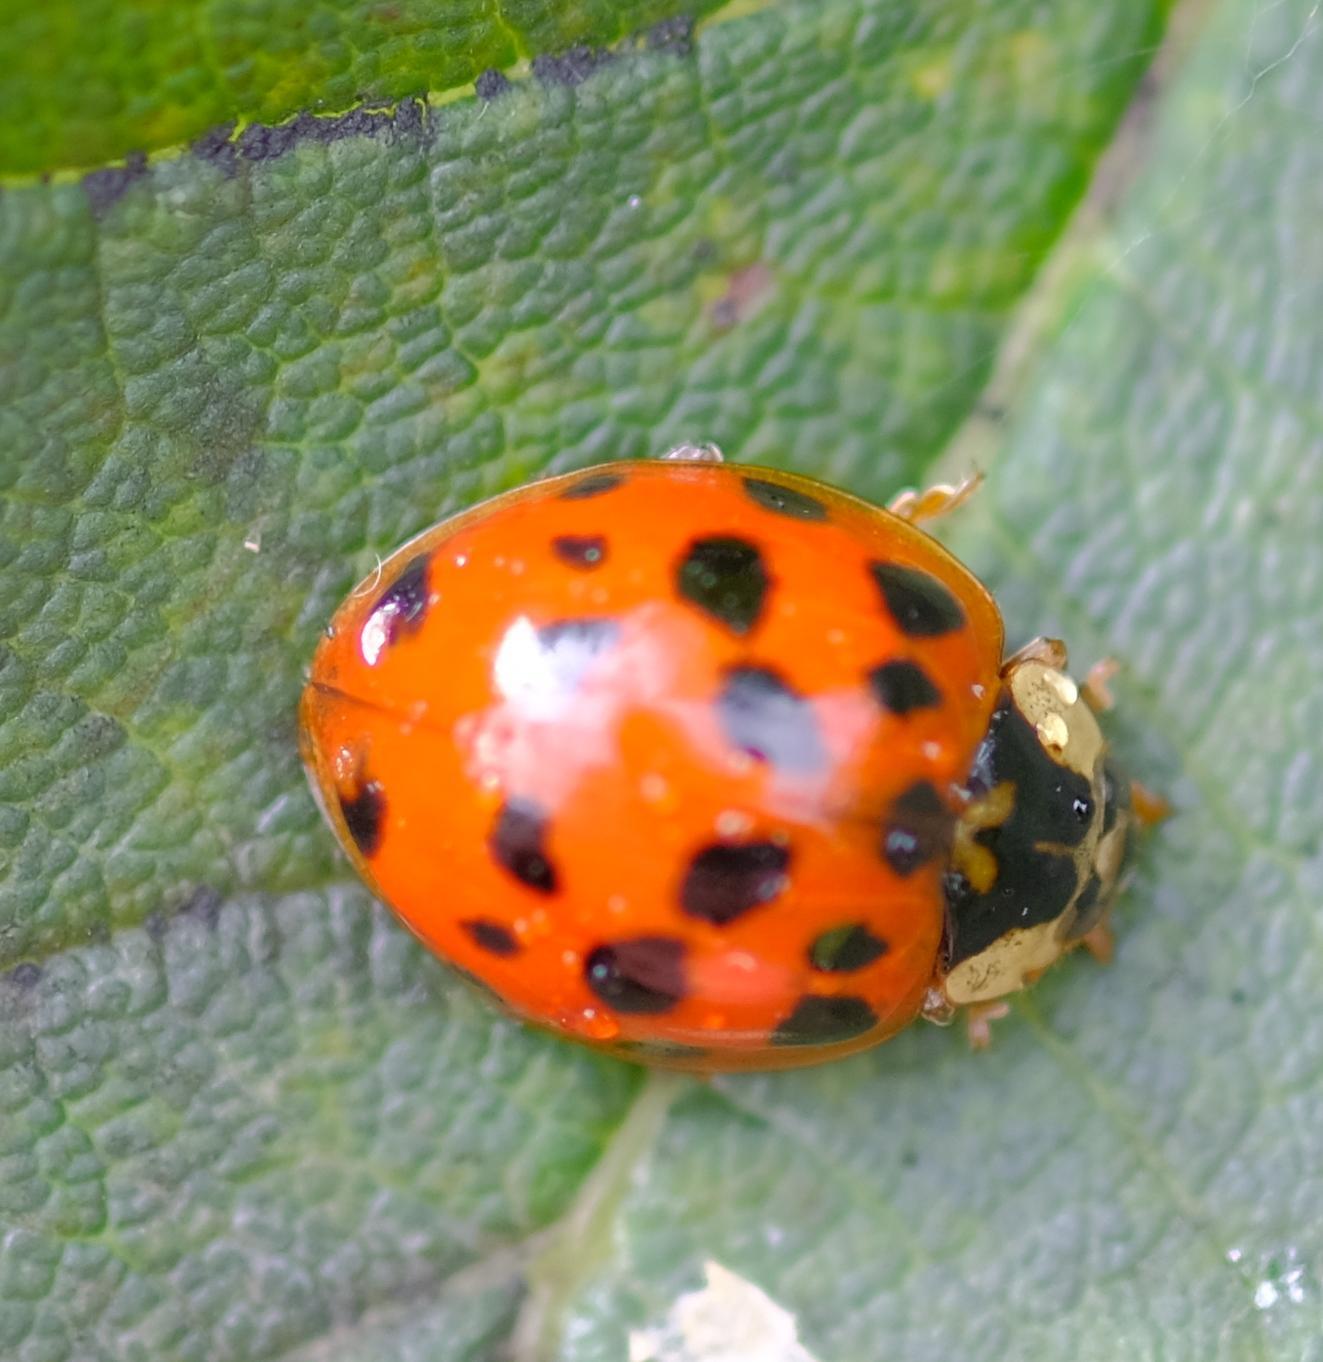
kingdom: Animalia
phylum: Arthropoda
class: Insecta
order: Coleoptera
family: Coccinellidae
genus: Harmonia
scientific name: Harmonia axyridis
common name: Harlequin ladybird
